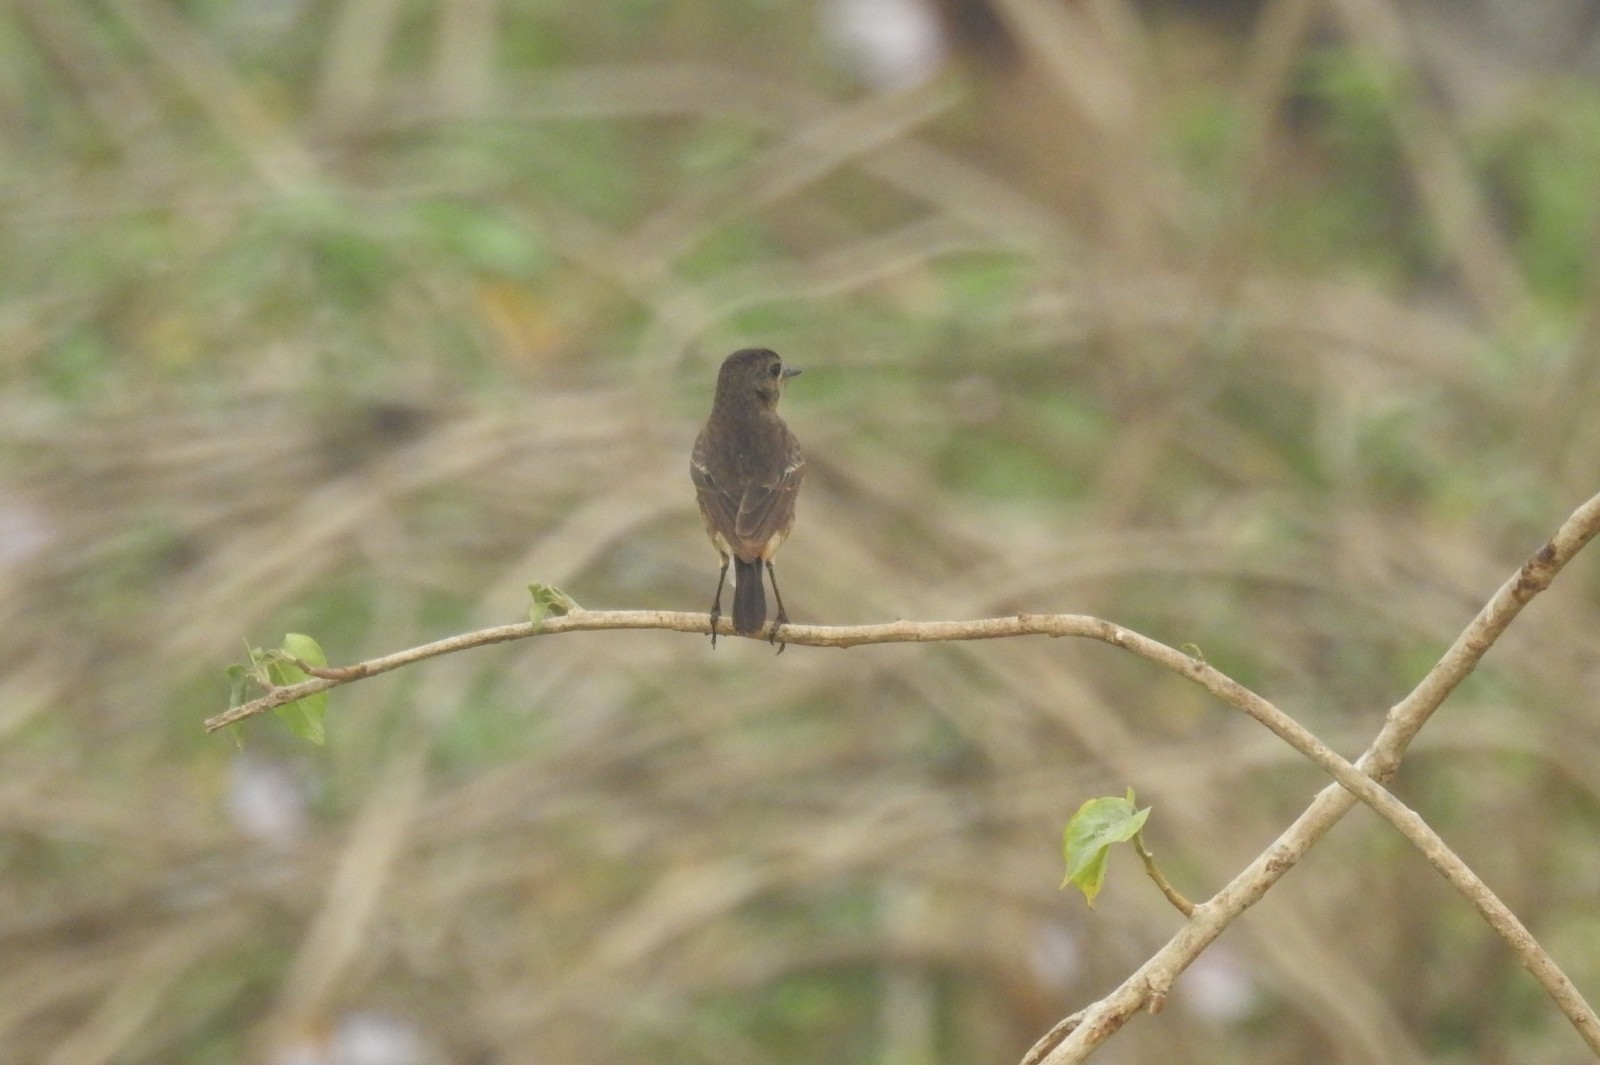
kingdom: Animalia
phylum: Chordata
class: Aves
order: Passeriformes
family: Muscicapidae
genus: Saxicola
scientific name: Saxicola caprata
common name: Pied bush chat
